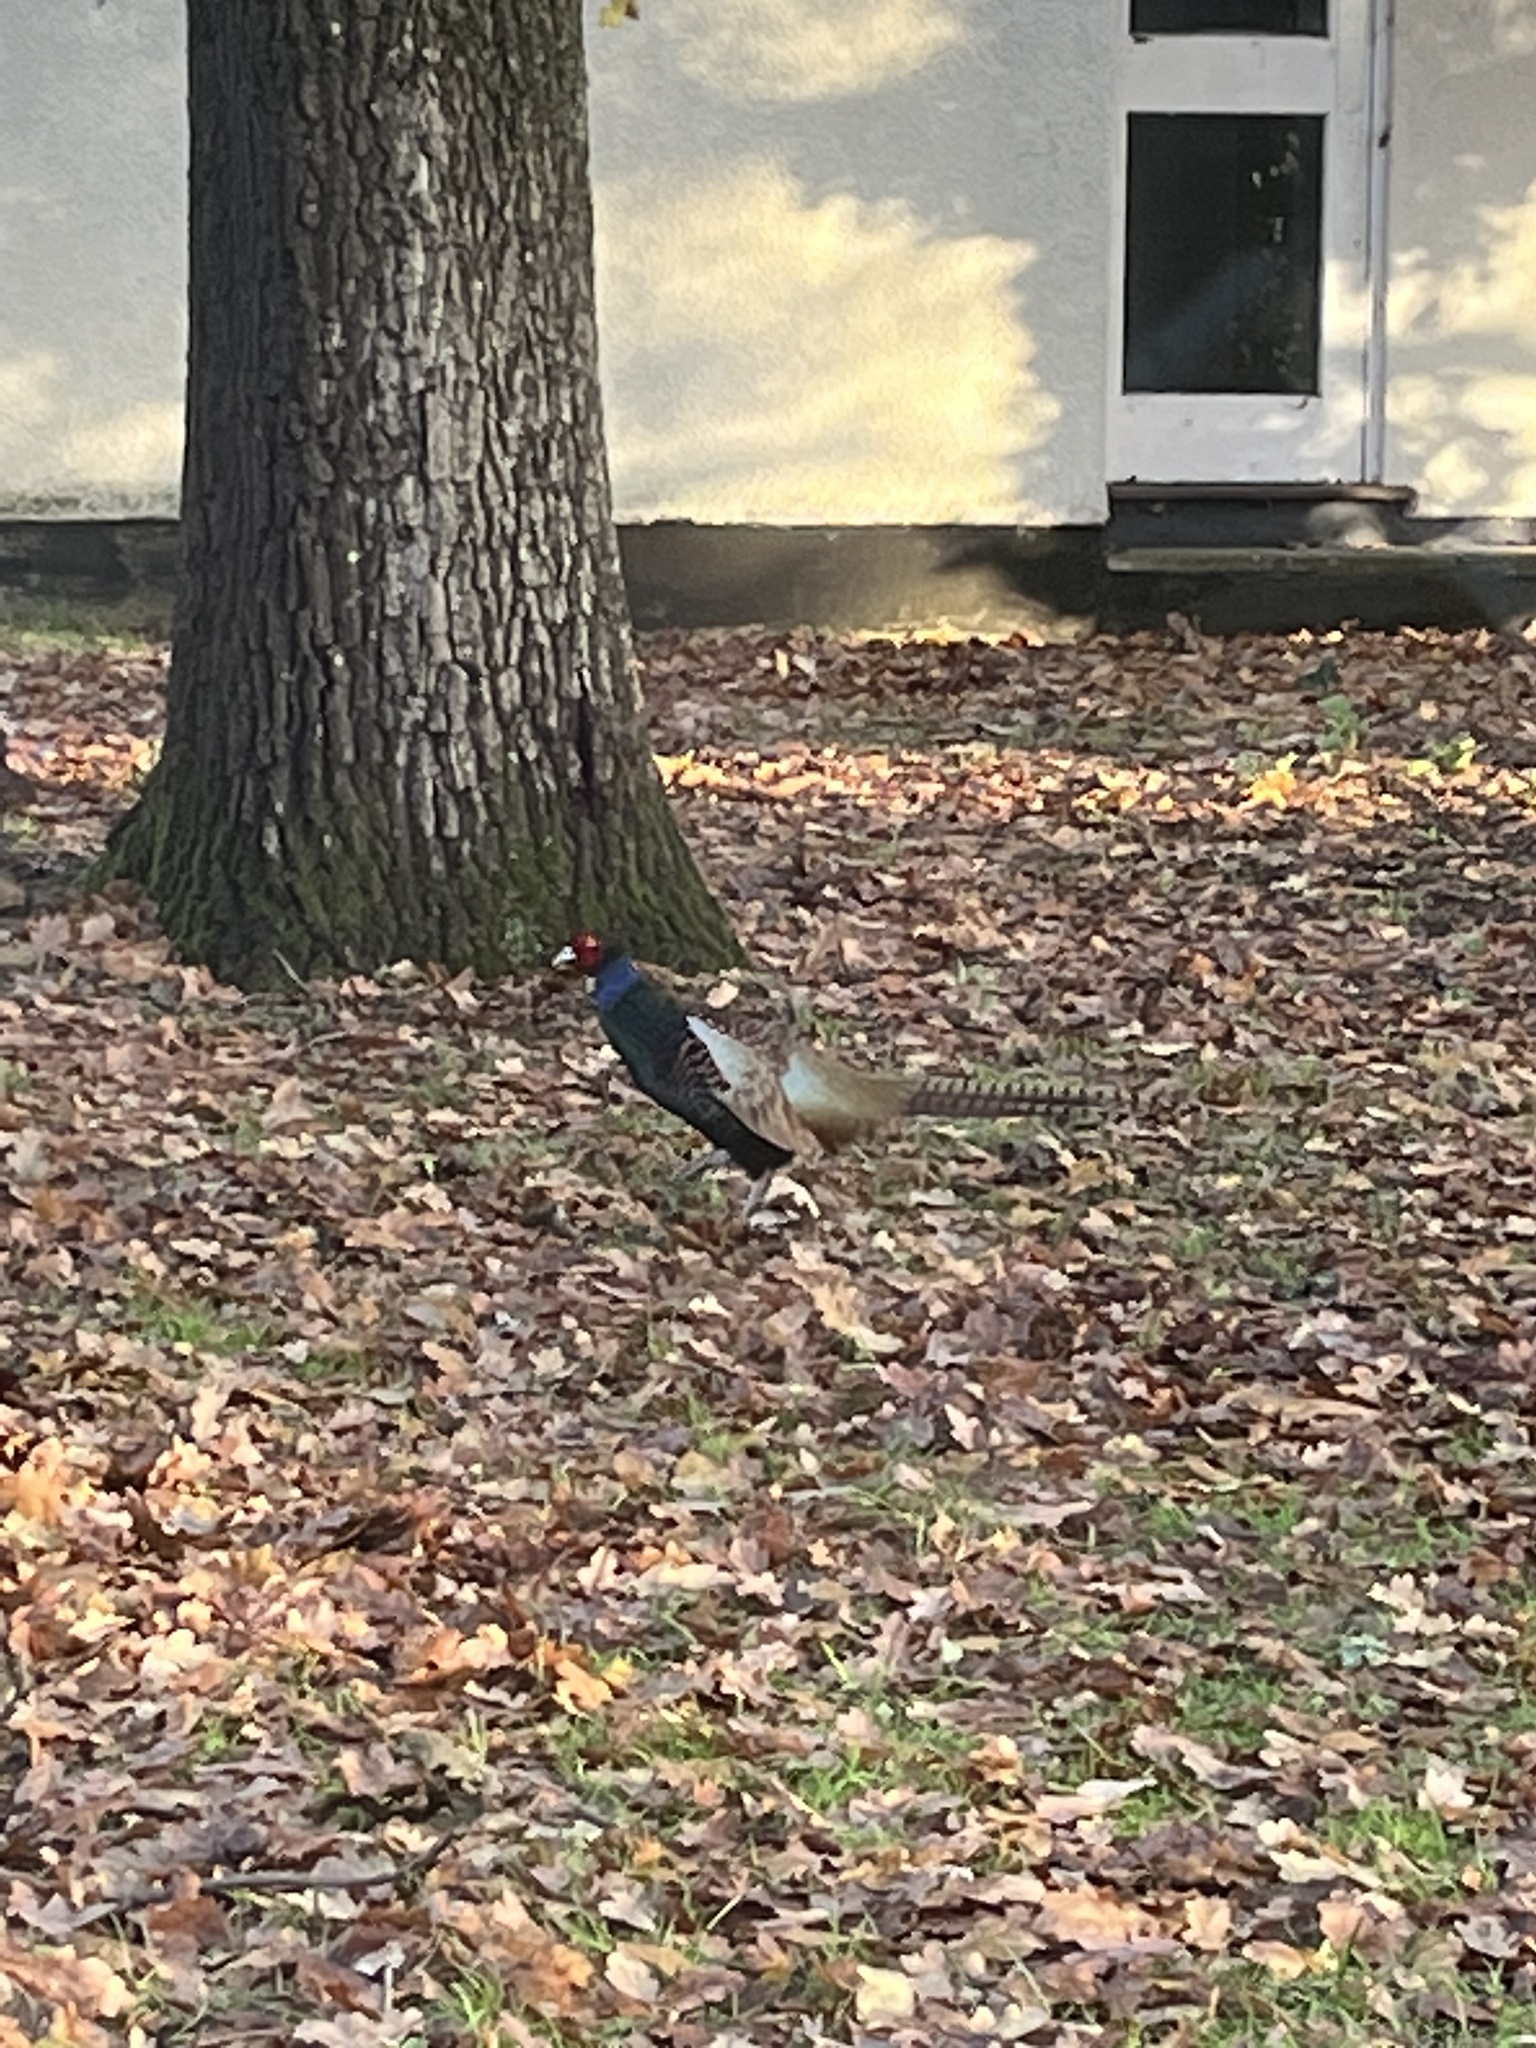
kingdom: Animalia
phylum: Chordata
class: Aves
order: Galliformes
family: Phasianidae
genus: Phasianus
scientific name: Phasianus colchicus
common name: Common pheasant
